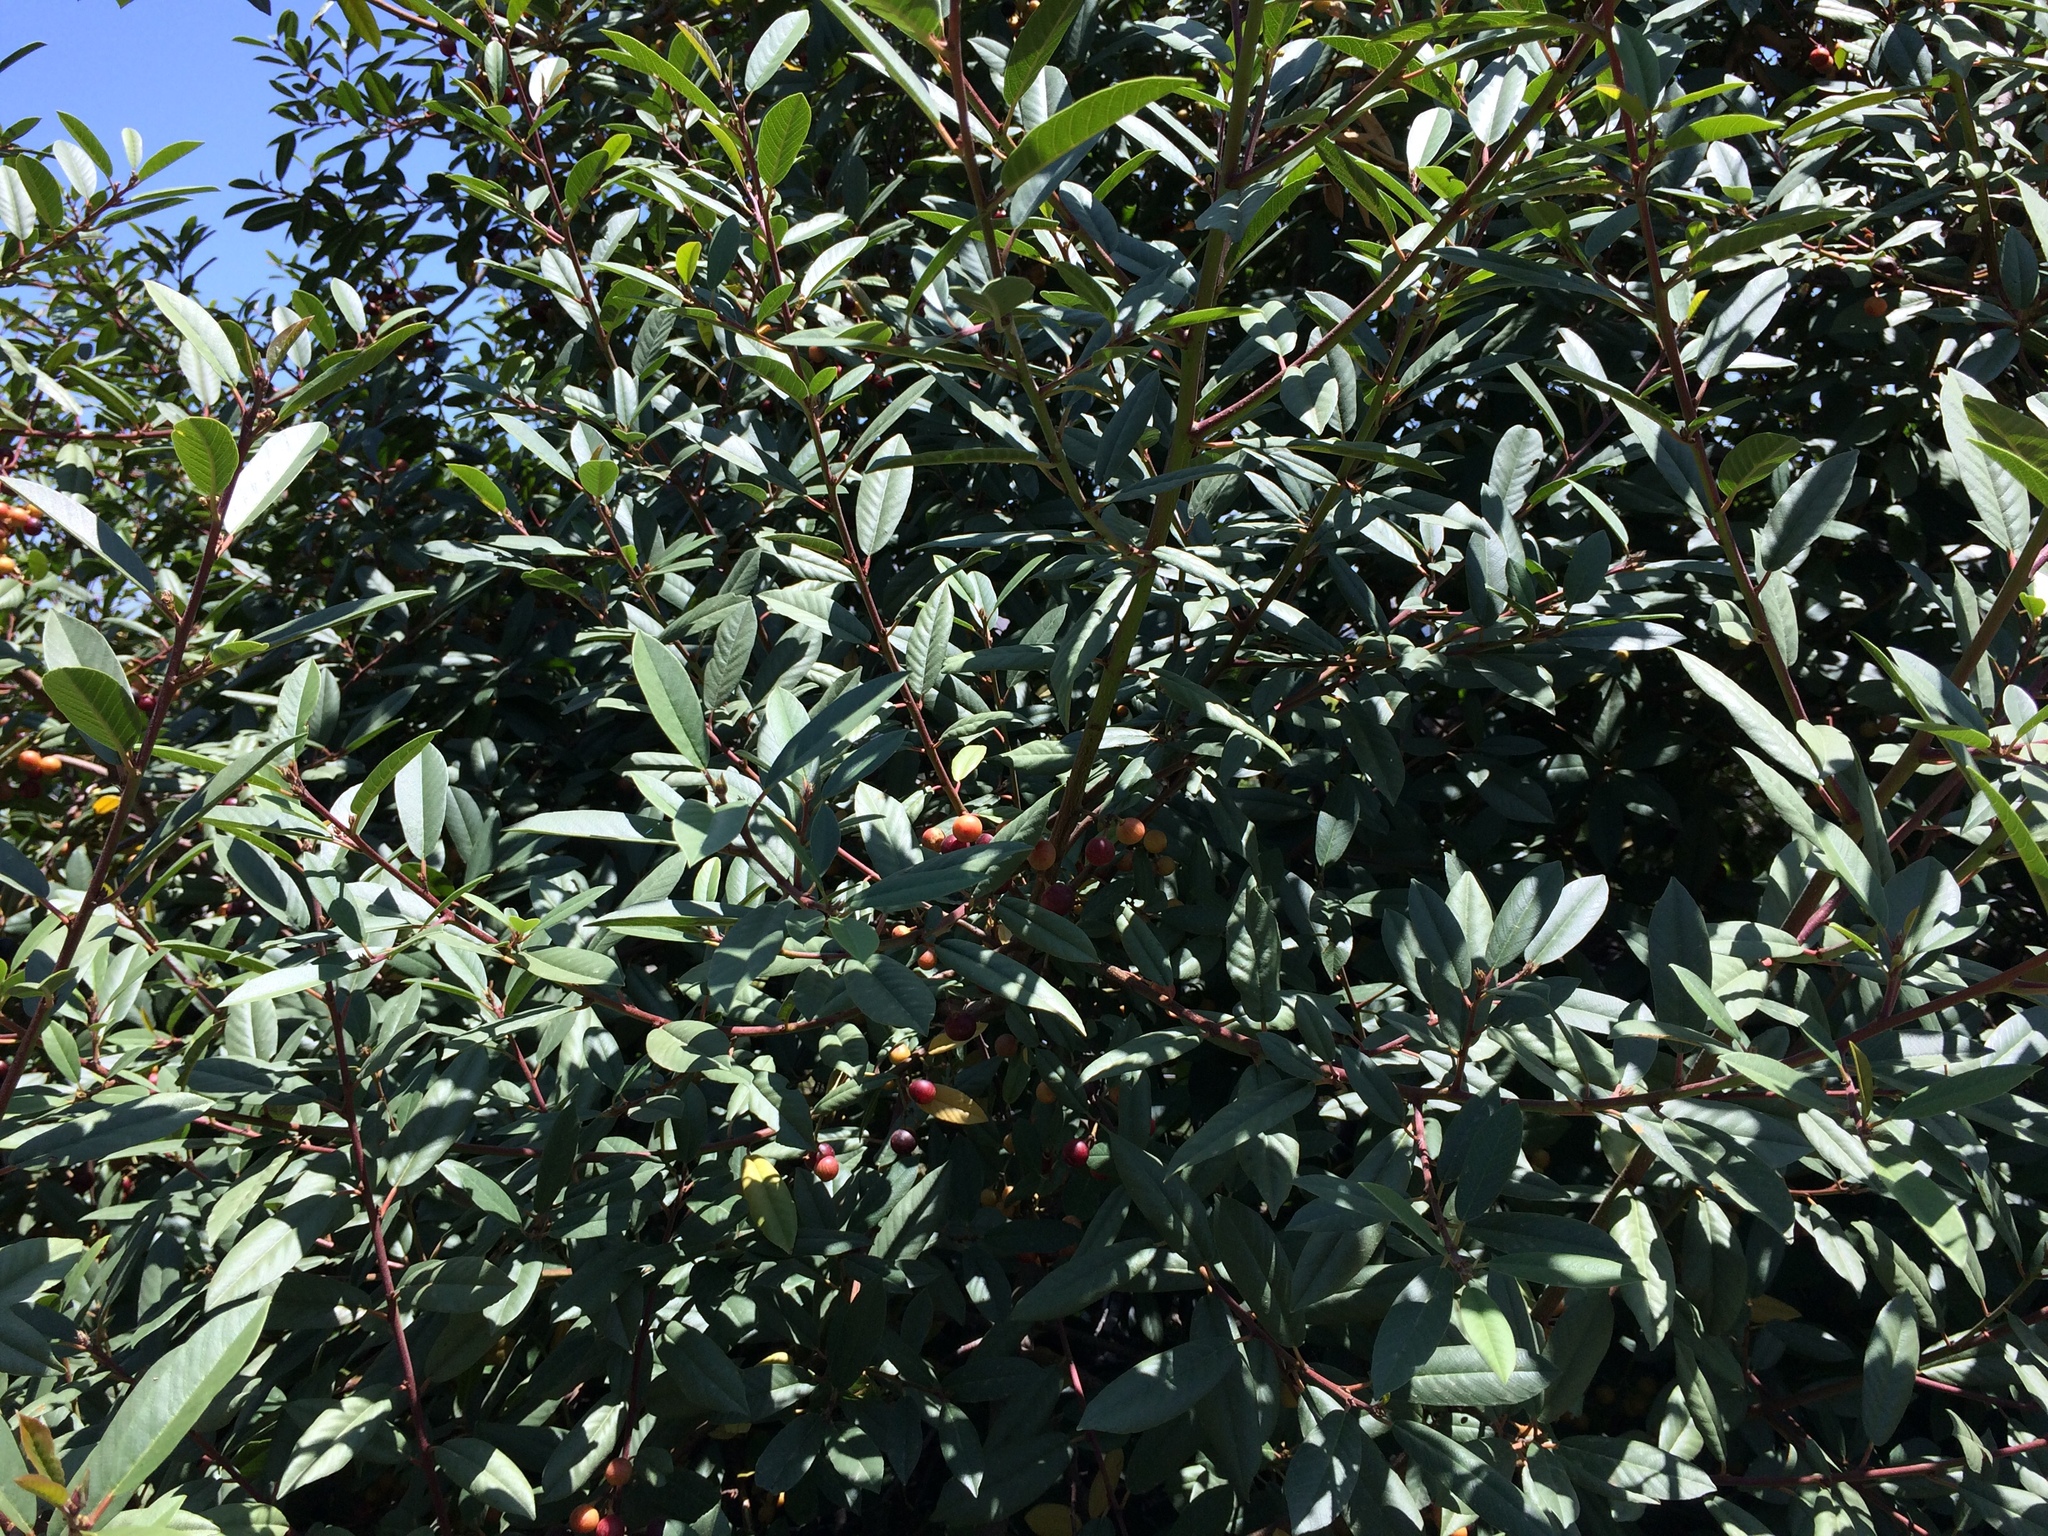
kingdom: Plantae
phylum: Tracheophyta
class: Magnoliopsida
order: Rosales
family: Rhamnaceae
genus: Frangula
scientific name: Frangula californica
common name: California buckthorn
